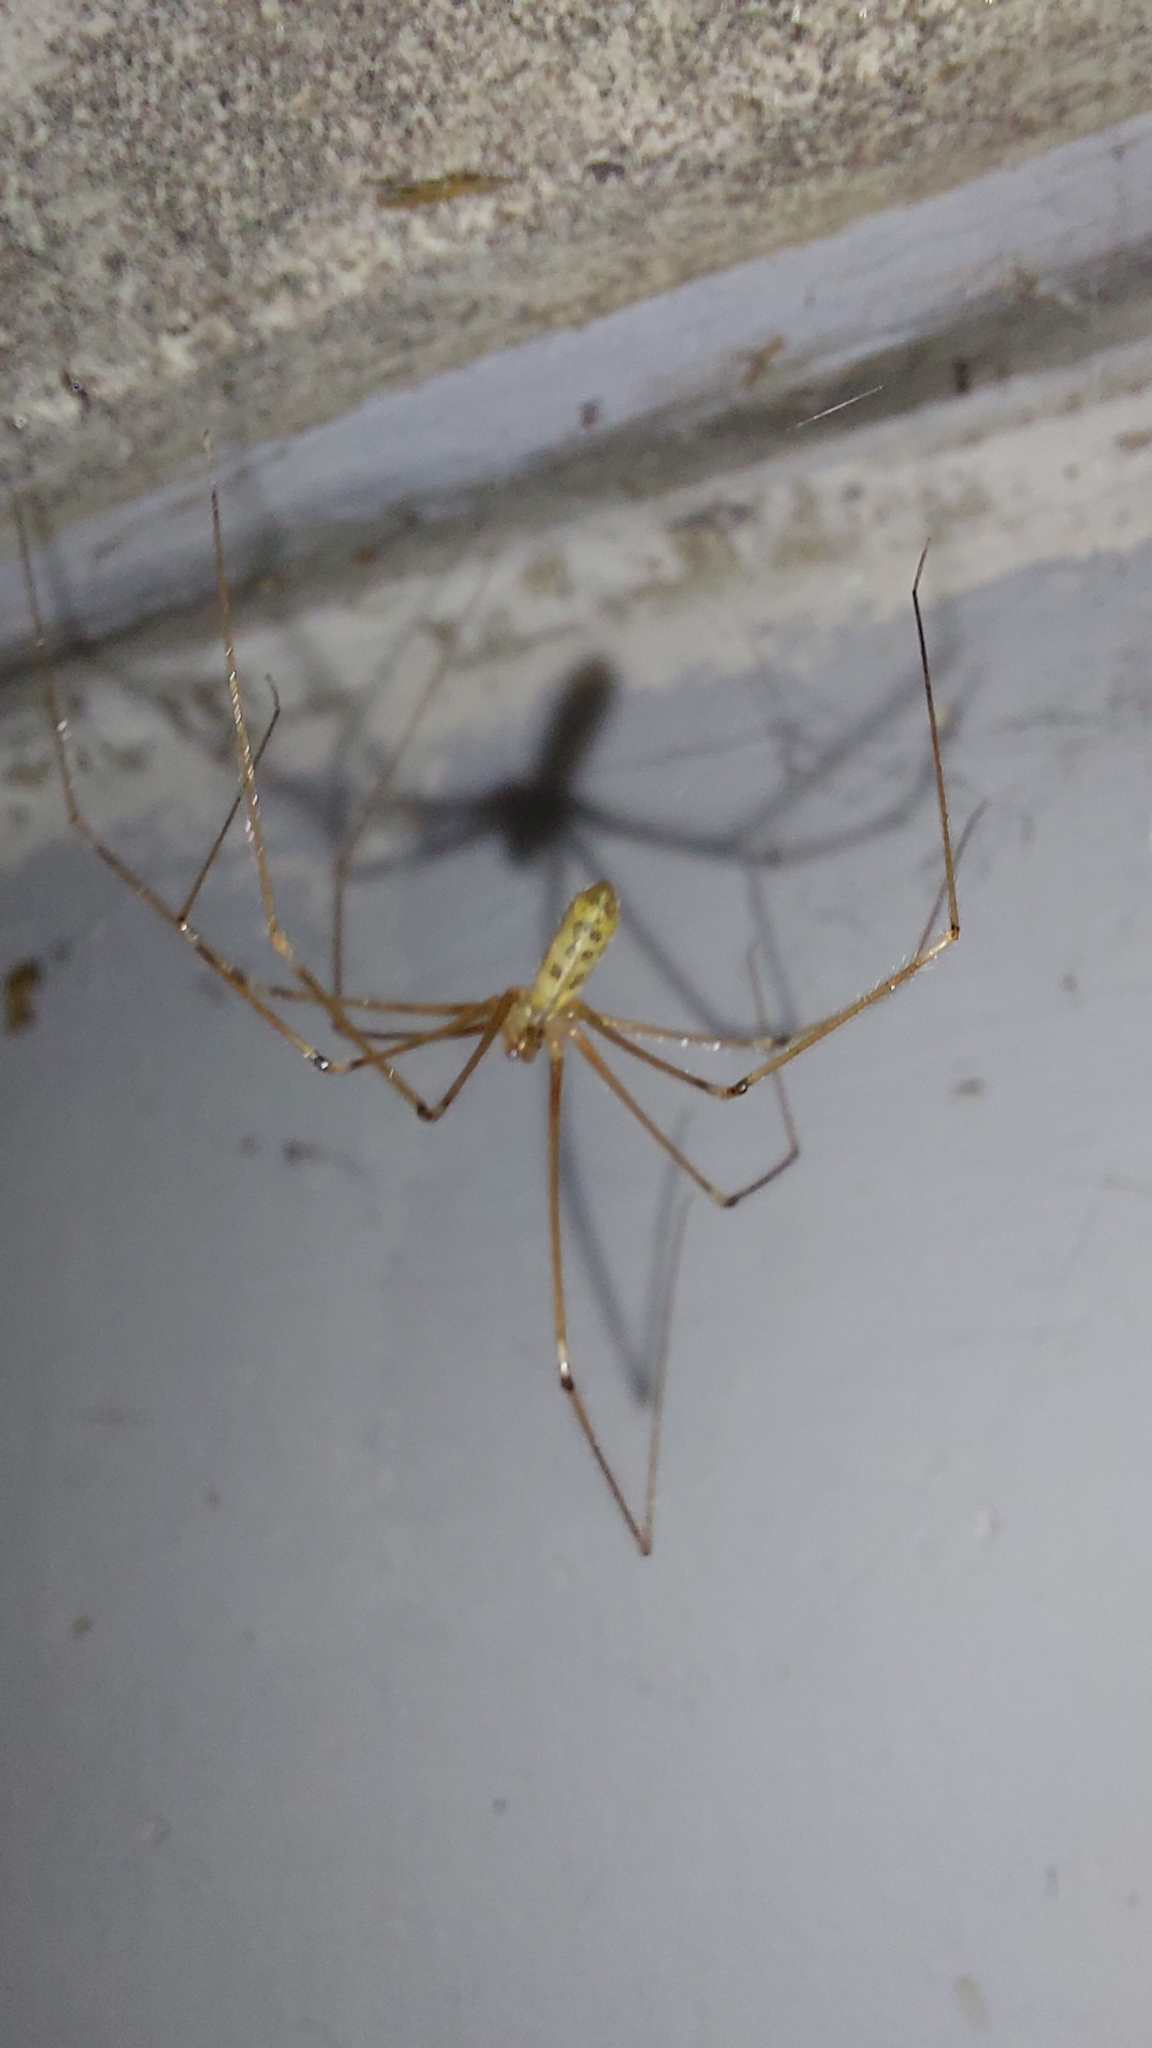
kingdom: Animalia
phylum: Arthropoda
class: Arachnida
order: Araneae
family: Pholcidae
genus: Pholcus
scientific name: Pholcus phalangioides
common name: Longbodied cellar spider
